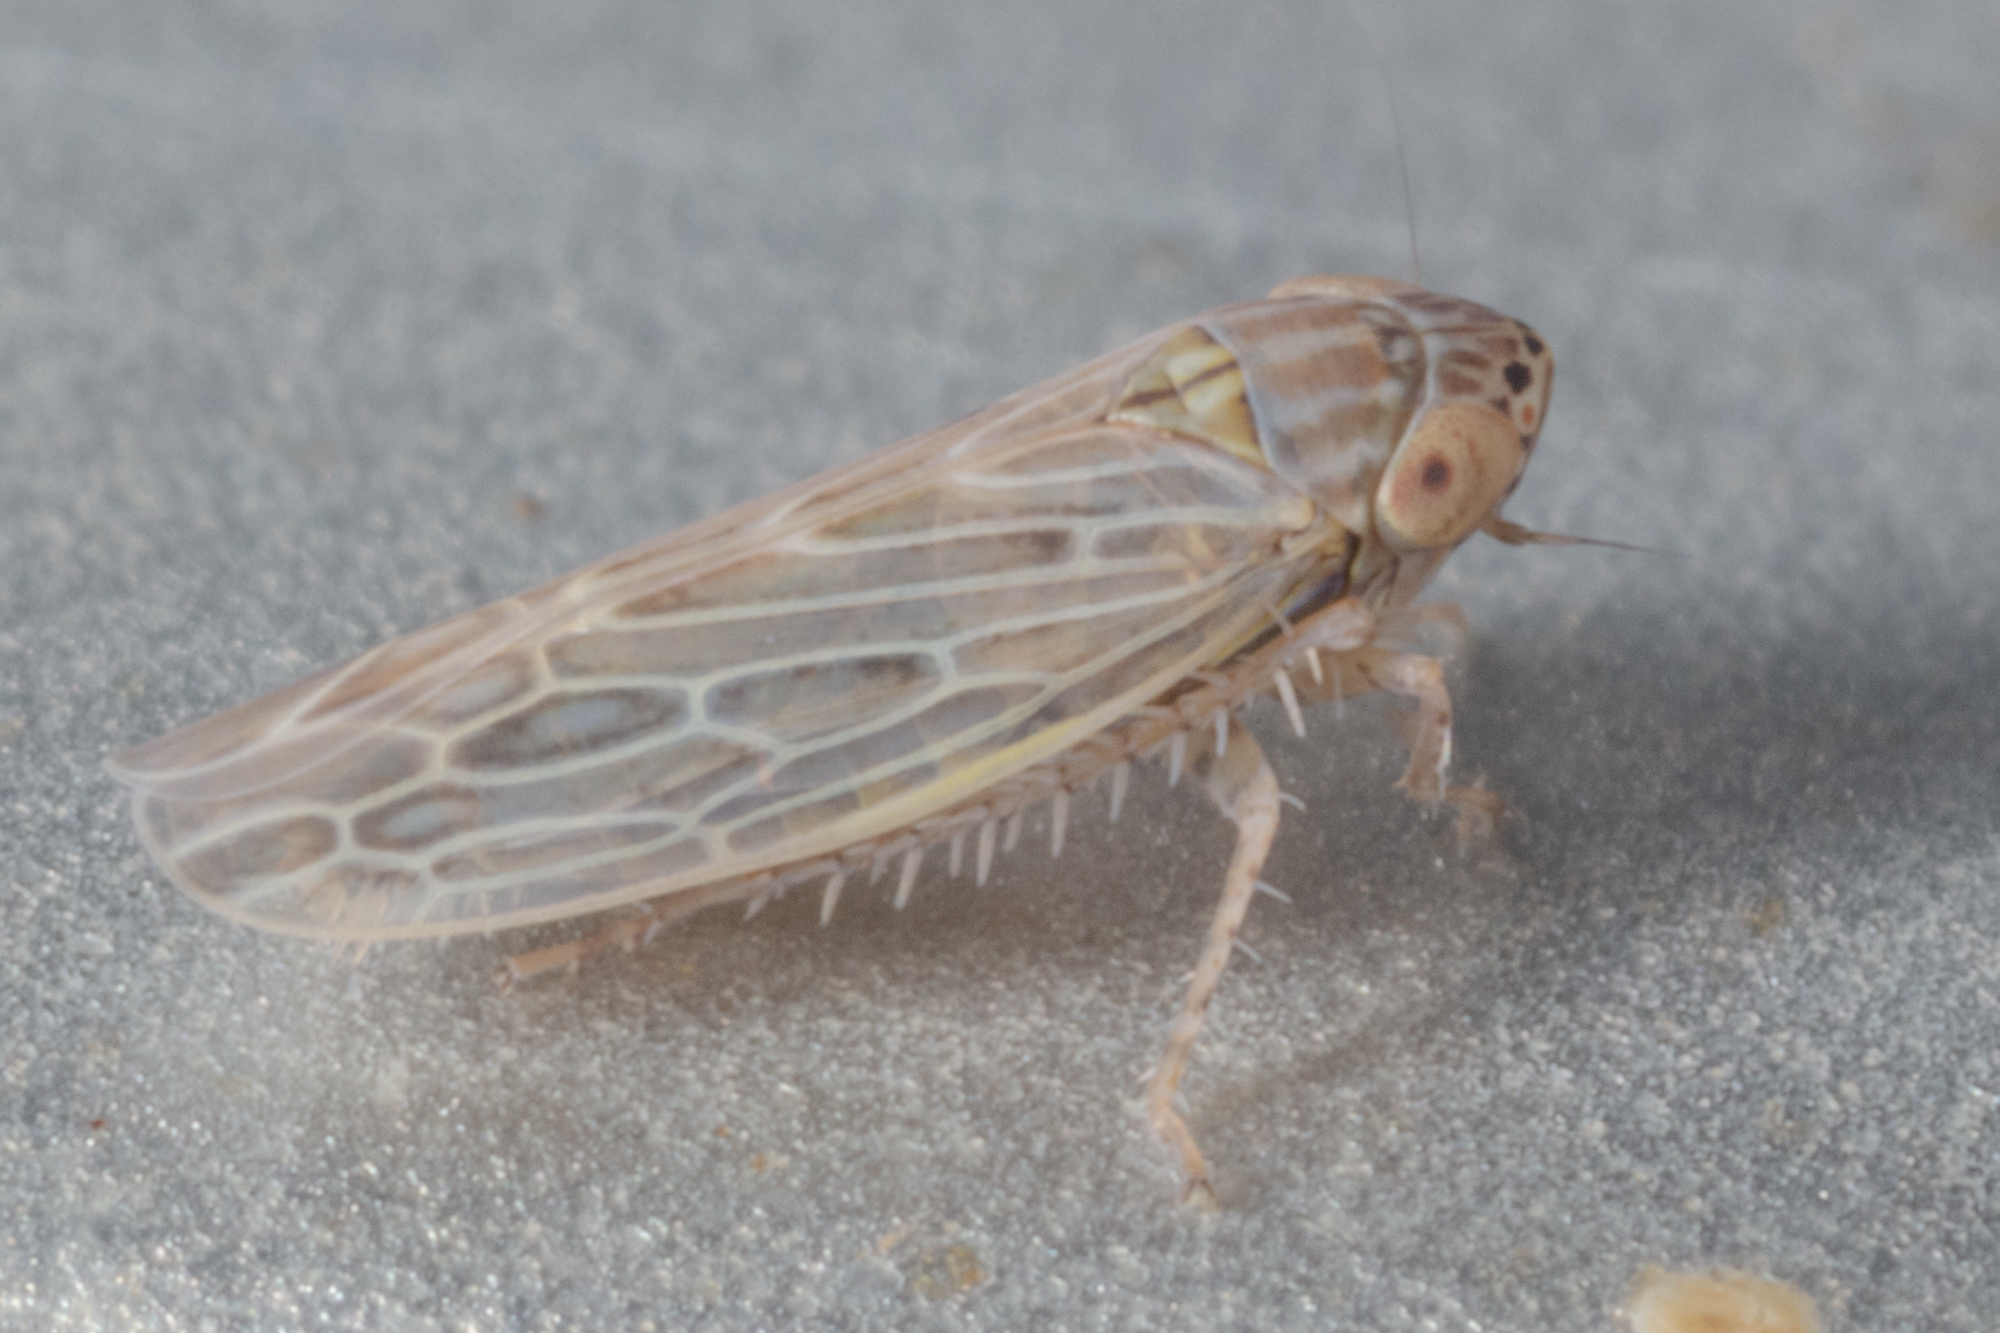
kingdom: Animalia
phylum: Arthropoda
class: Insecta
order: Hemiptera
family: Cicadellidae
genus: Graminella
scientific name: Graminella sonora
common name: Lesser lawn leafhopper
